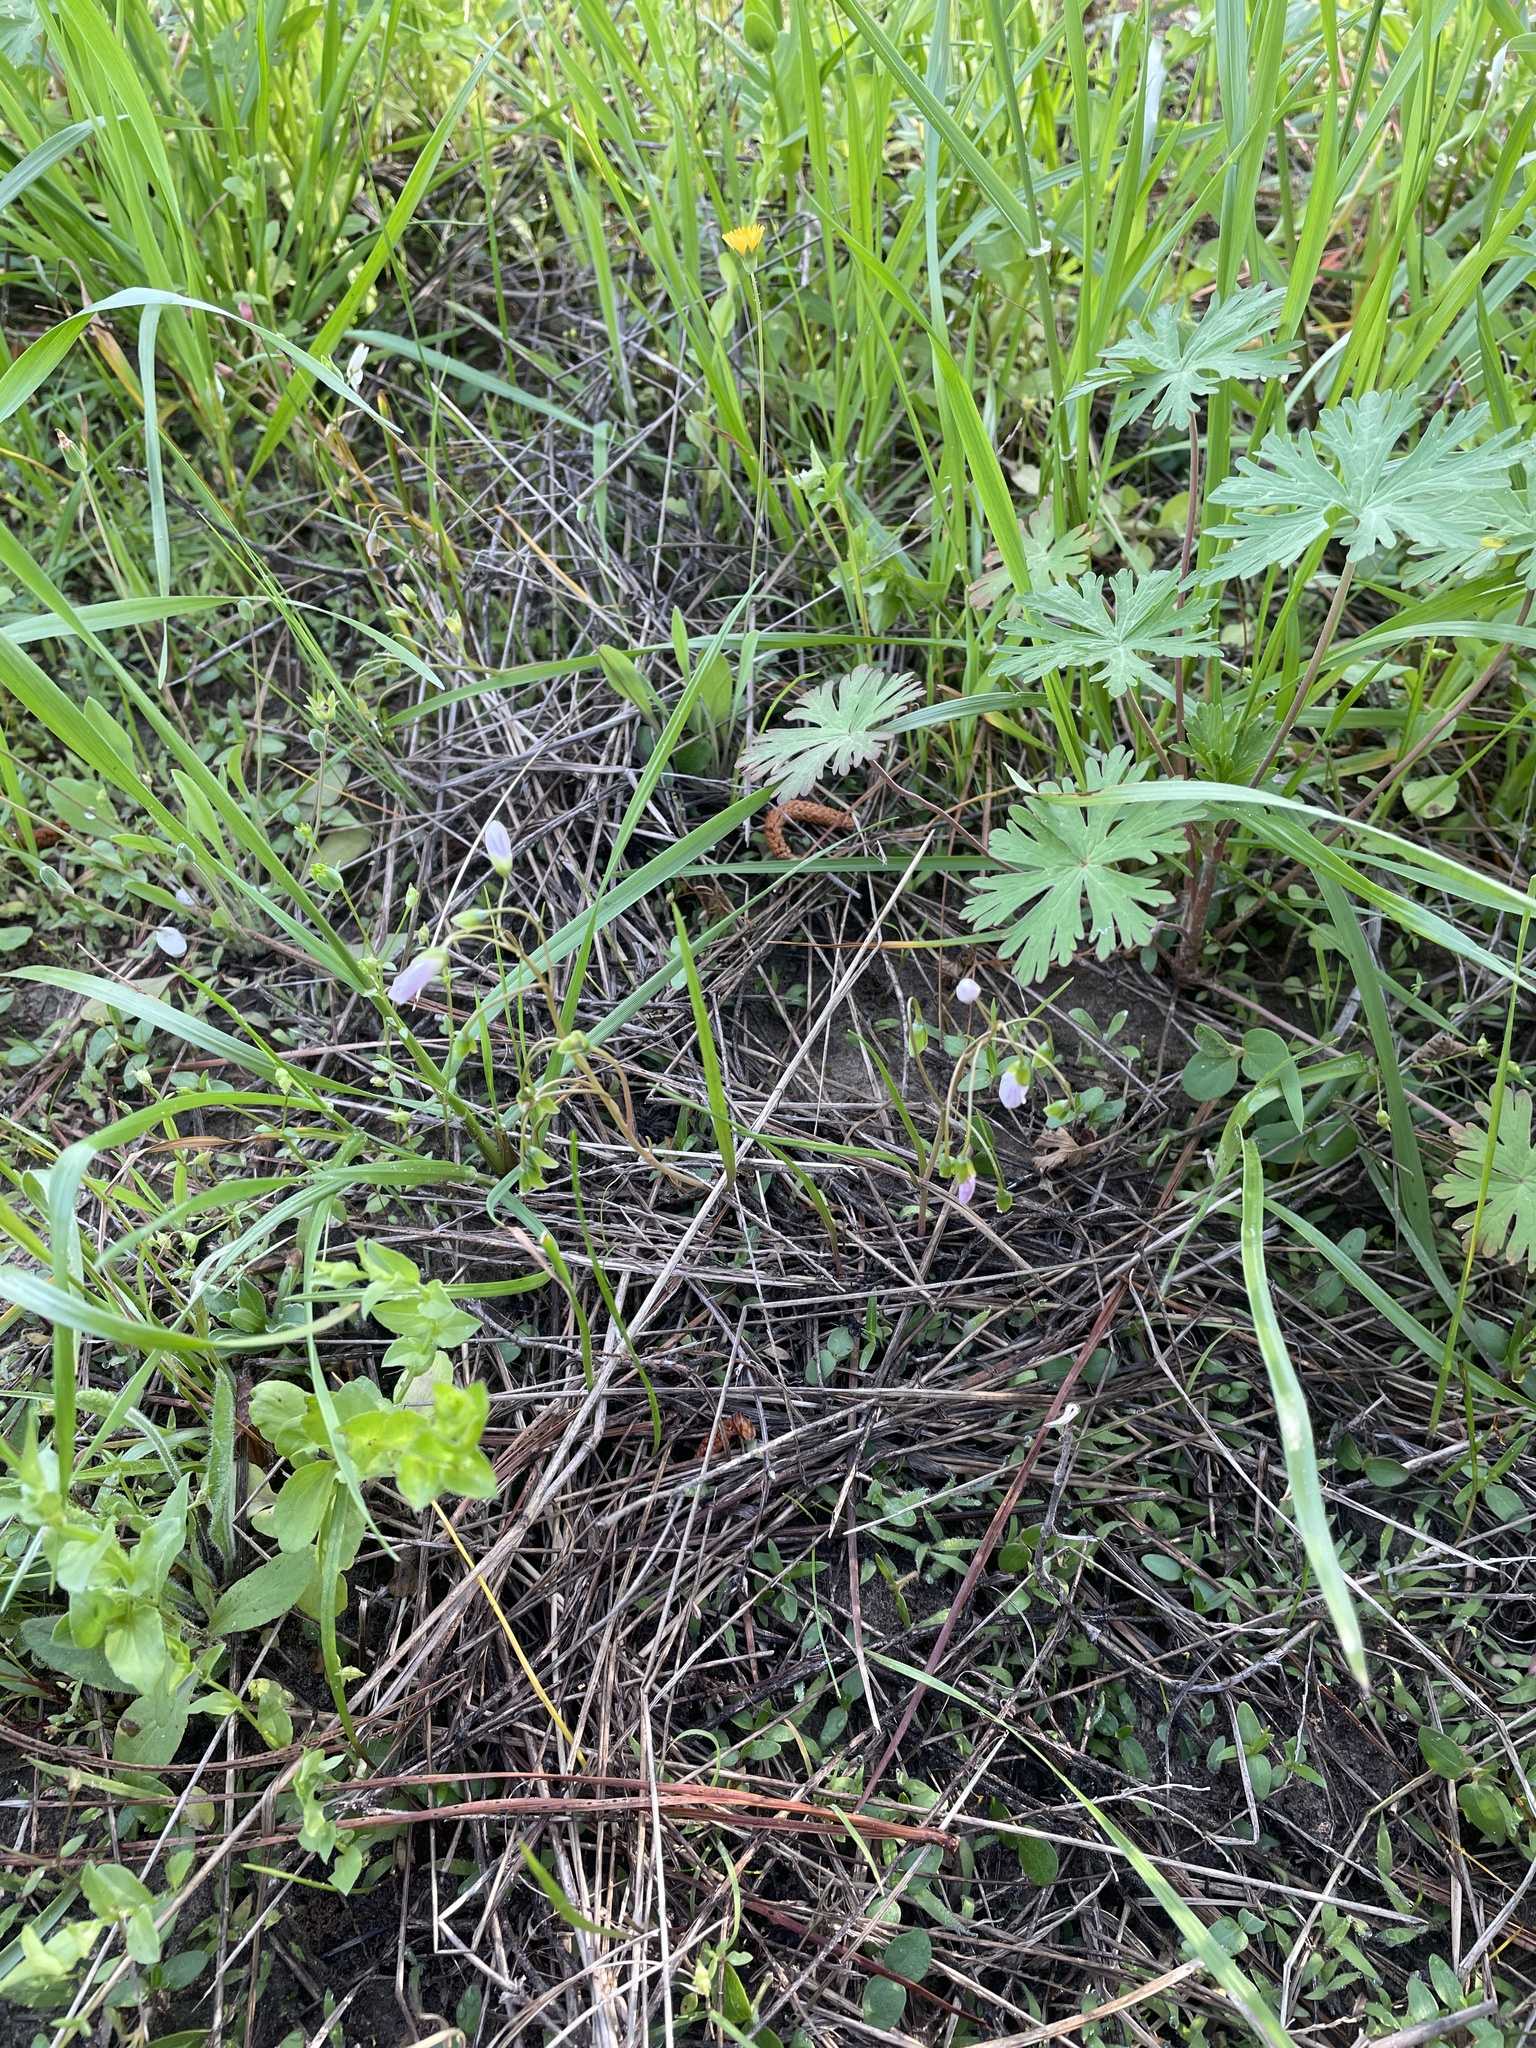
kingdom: Plantae
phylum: Tracheophyta
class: Magnoliopsida
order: Caryophyllales
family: Montiaceae
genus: Claytonia
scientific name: Claytonia virginica
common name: Virginia springbeauty
